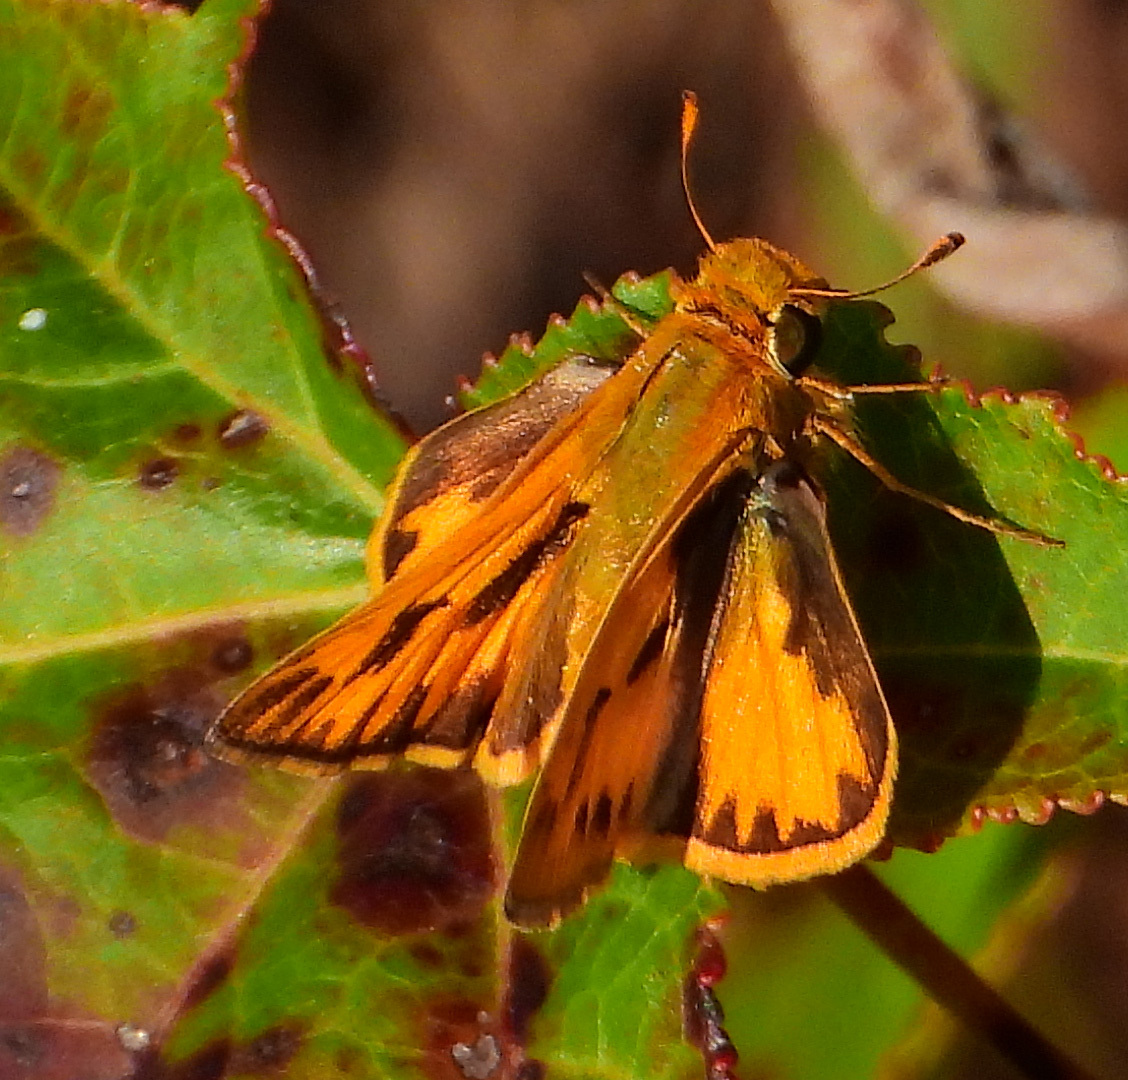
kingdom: Animalia
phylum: Arthropoda
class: Insecta
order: Lepidoptera
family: Hesperiidae
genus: Hylephila
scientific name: Hylephila phyleus
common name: Fiery skipper
